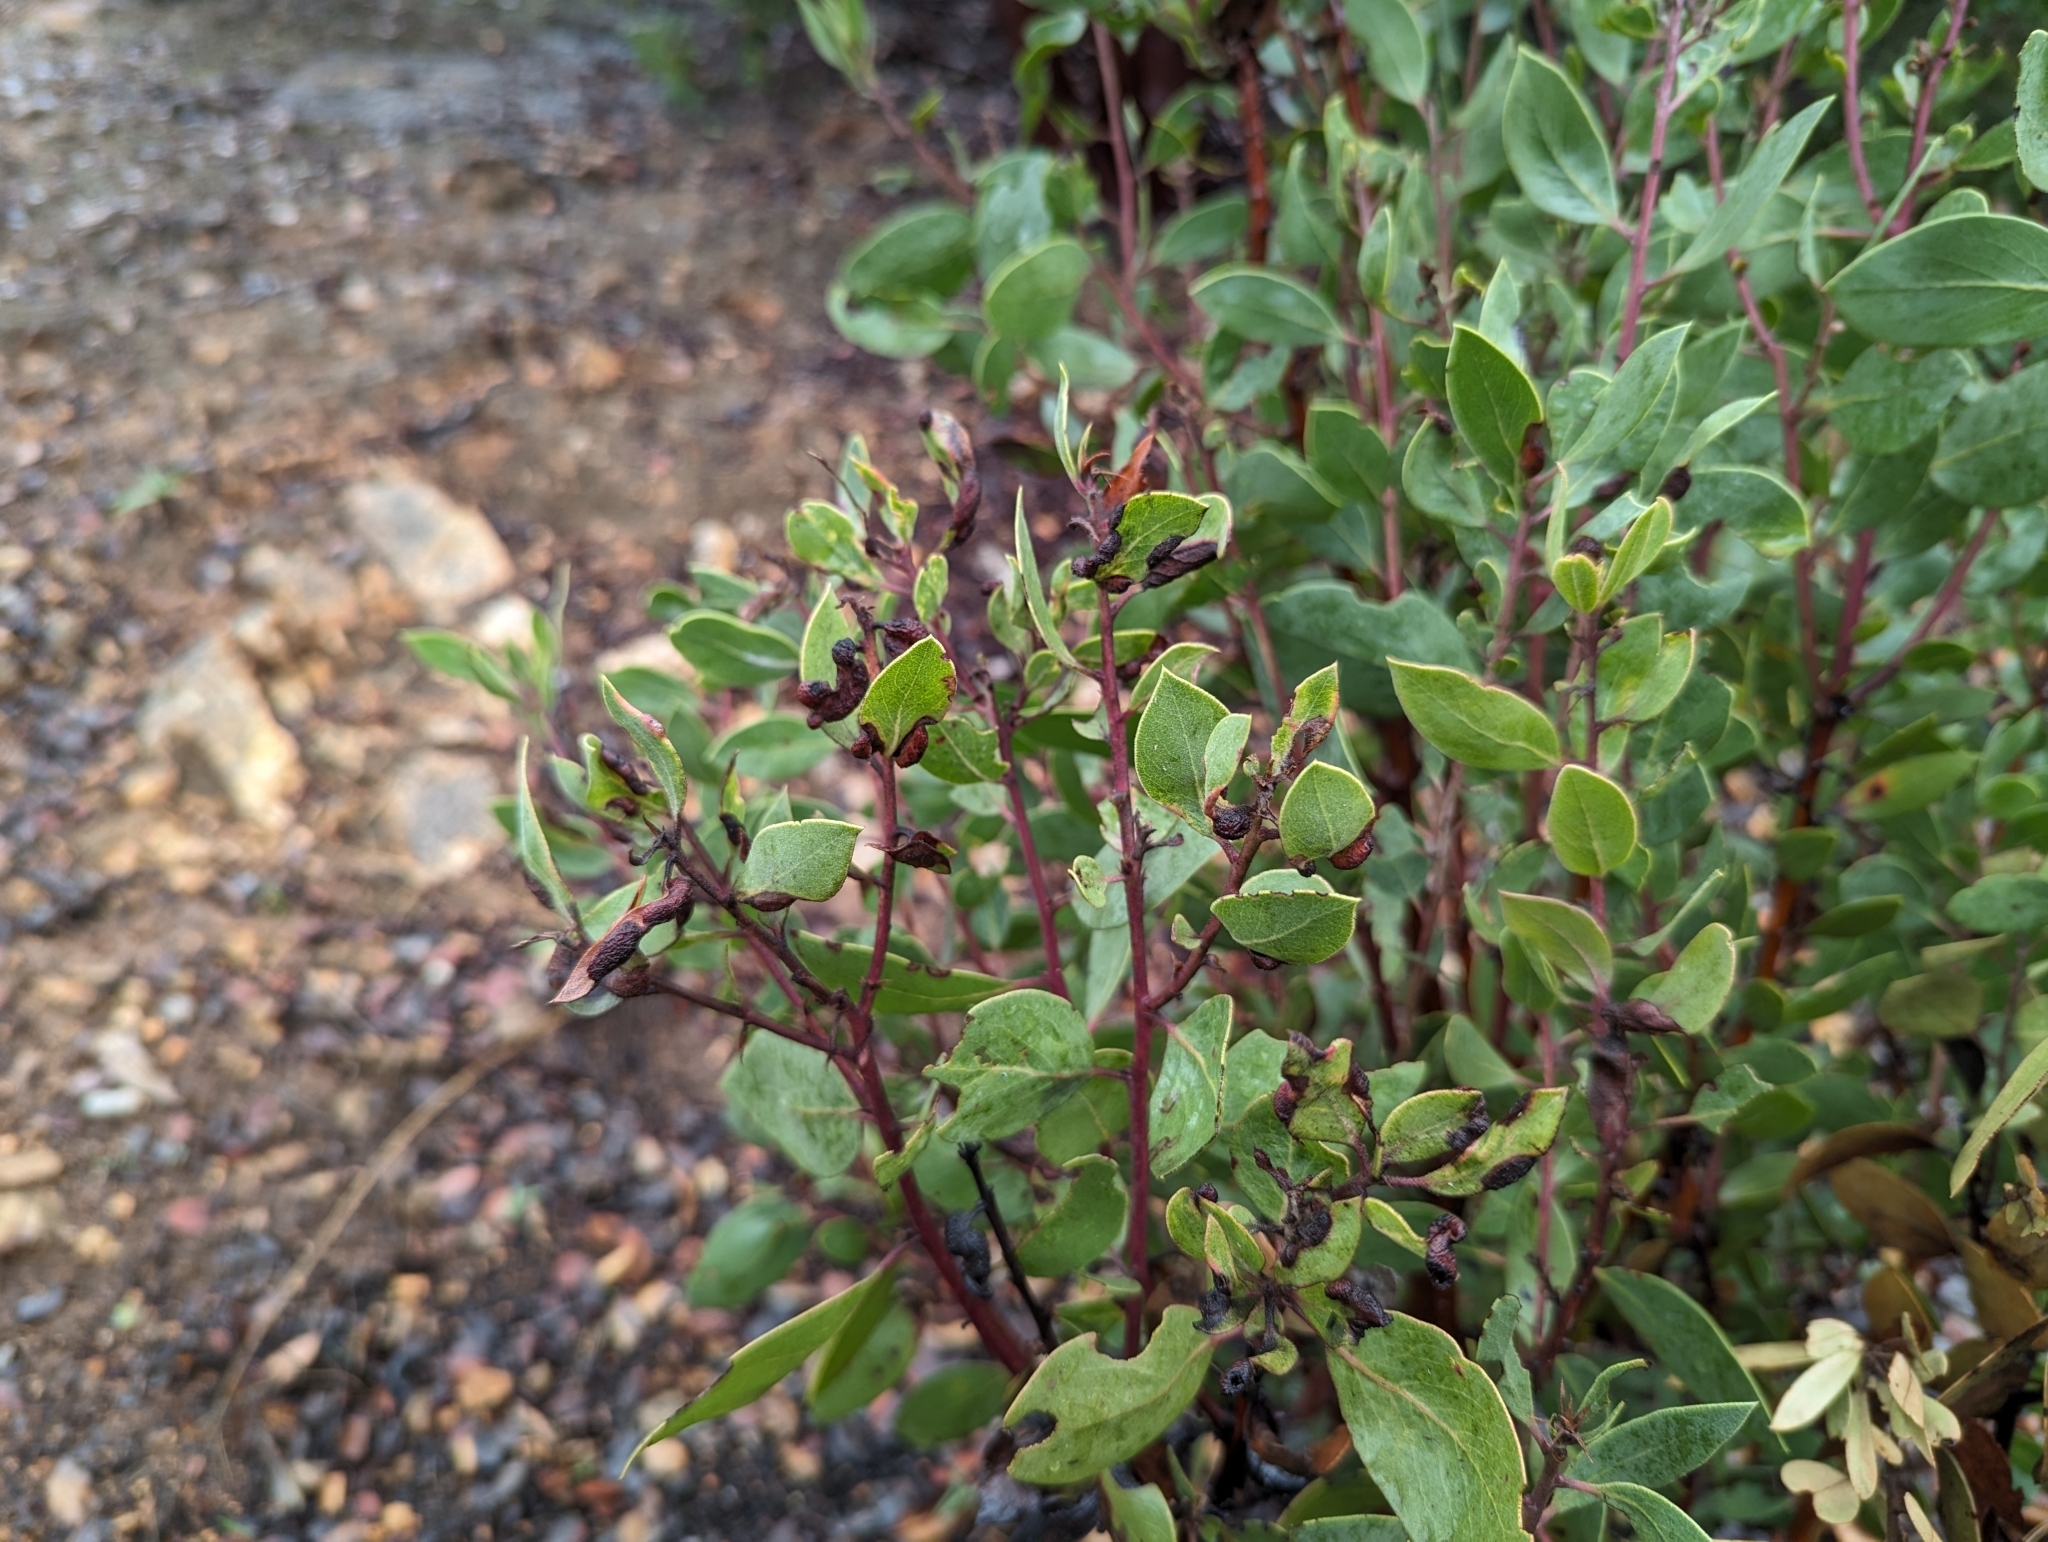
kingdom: Plantae
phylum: Tracheophyta
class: Magnoliopsida
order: Ericales
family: Ericaceae
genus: Arctostaphylos
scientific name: Arctostaphylos manzanita
